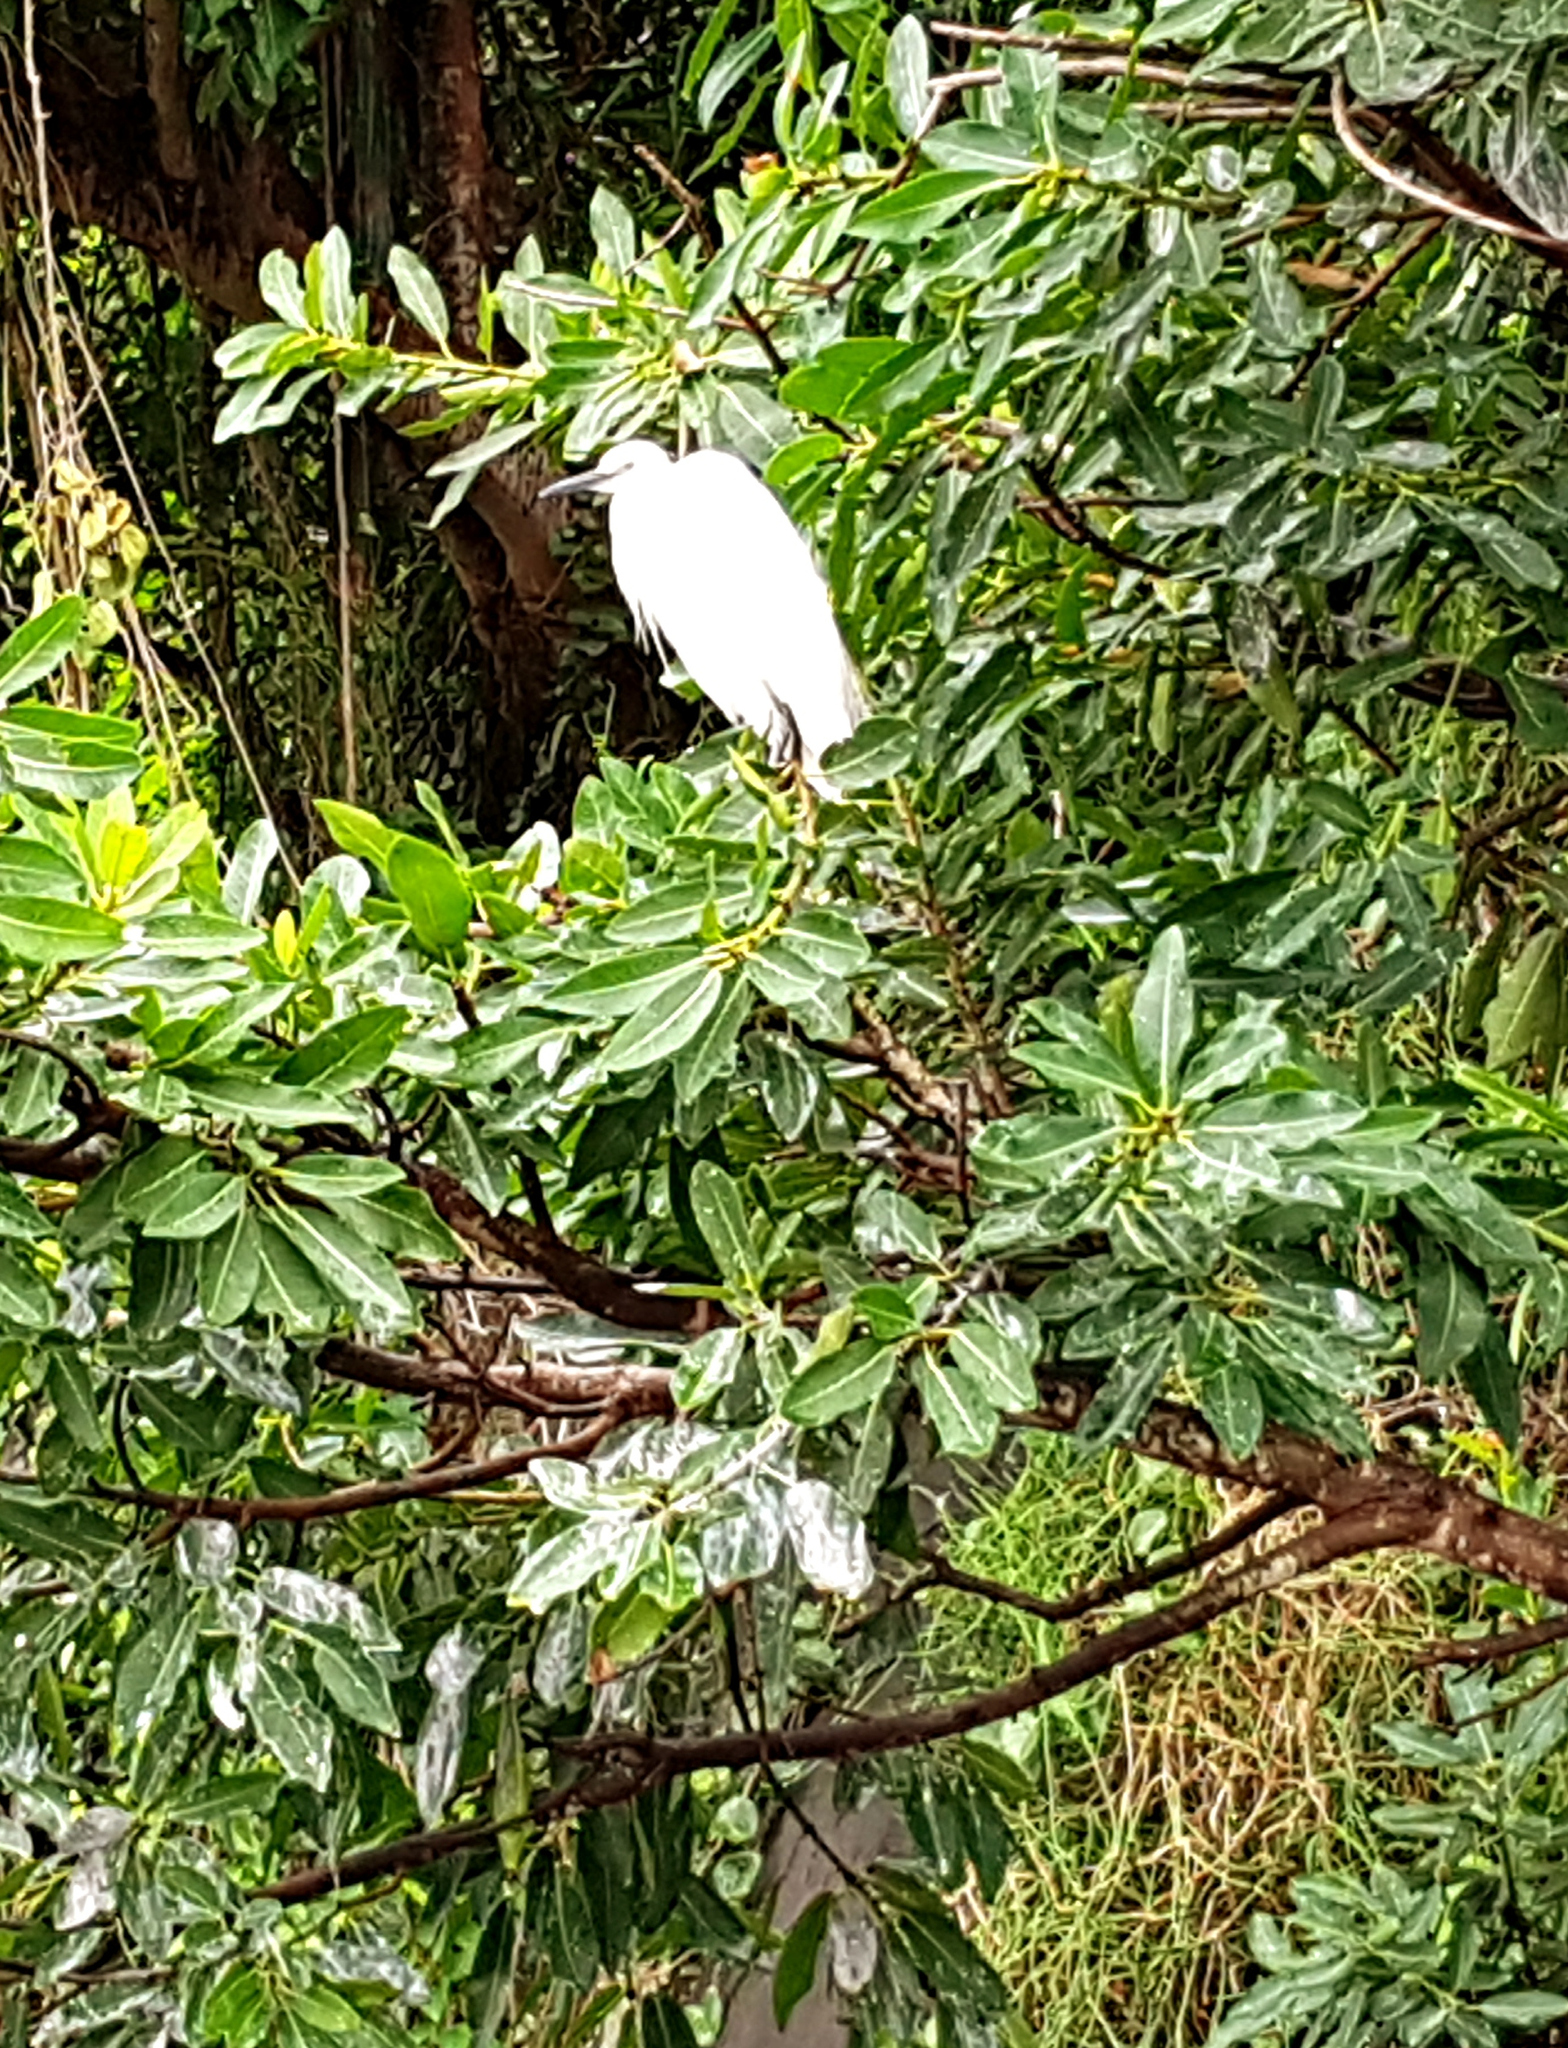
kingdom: Animalia
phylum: Chordata
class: Aves
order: Pelecaniformes
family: Ardeidae
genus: Egretta
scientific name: Egretta garzetta
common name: Little egret
